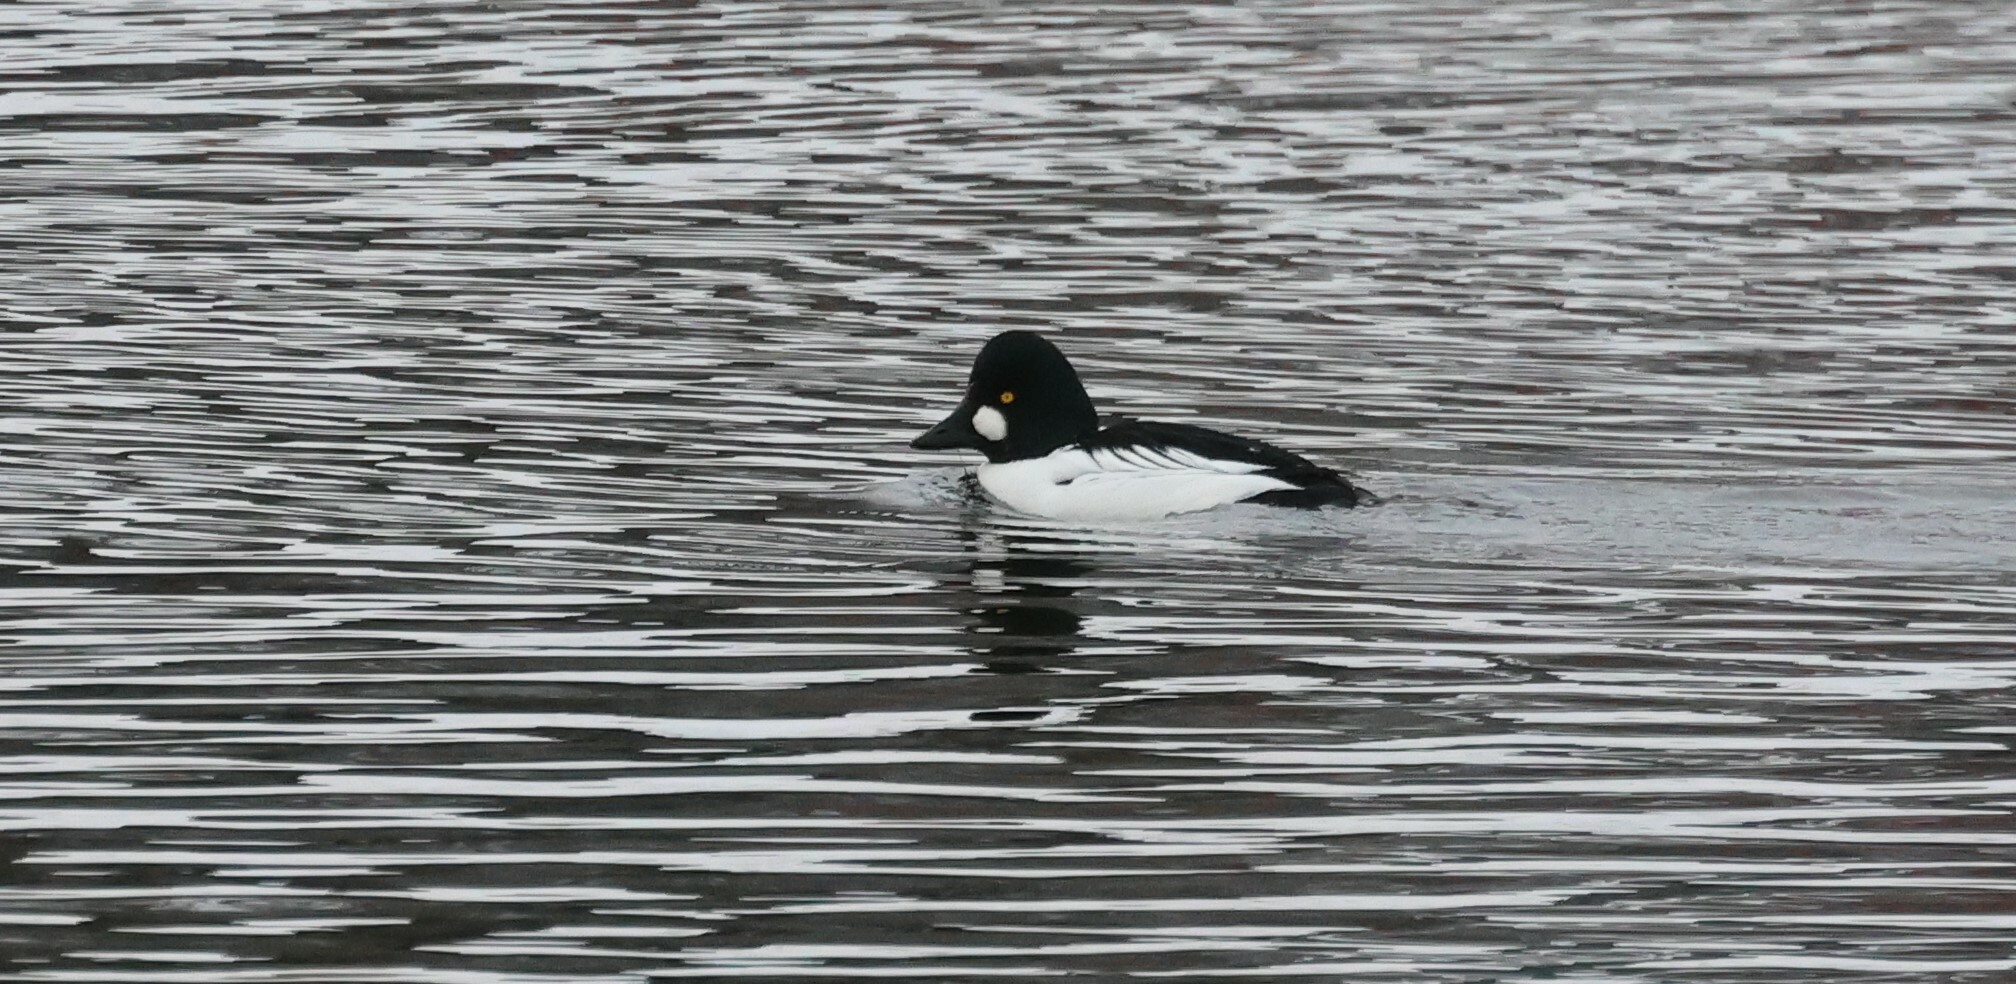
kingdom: Animalia
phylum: Chordata
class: Aves
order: Anseriformes
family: Anatidae
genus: Bucephala
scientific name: Bucephala clangula
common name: Common goldeneye
